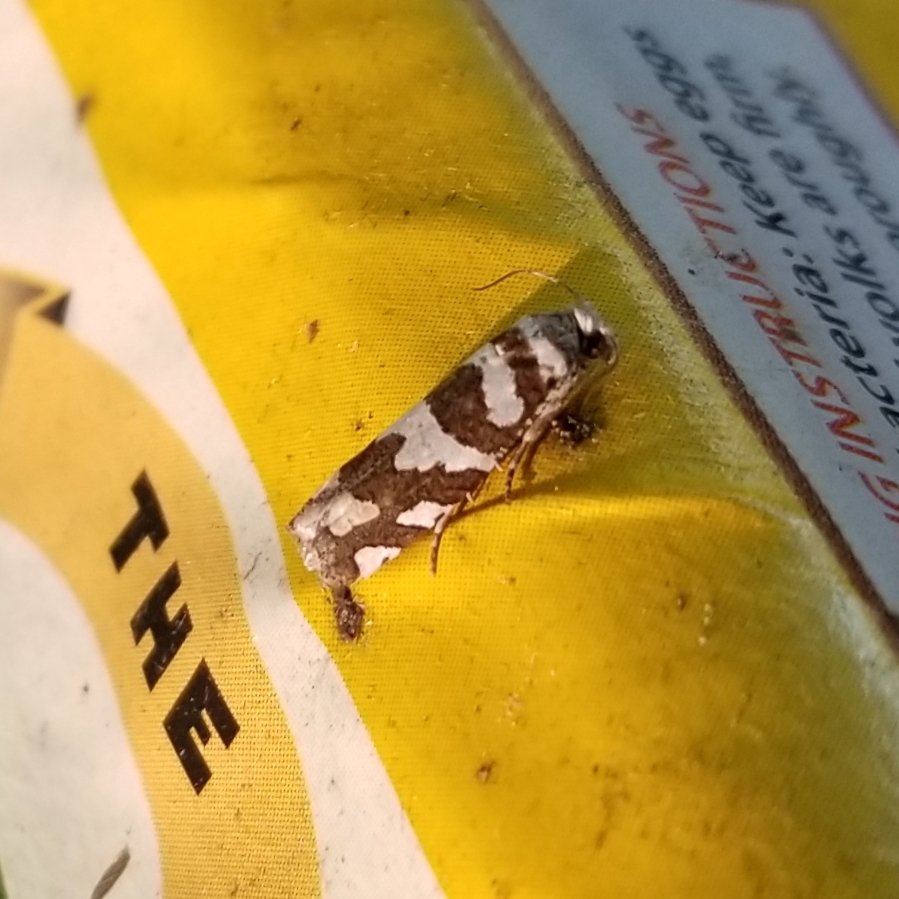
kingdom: Animalia
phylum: Arthropoda
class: Insecta
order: Lepidoptera
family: Tortricidae
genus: Pelochrista
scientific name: Pelochrista robinsonana
